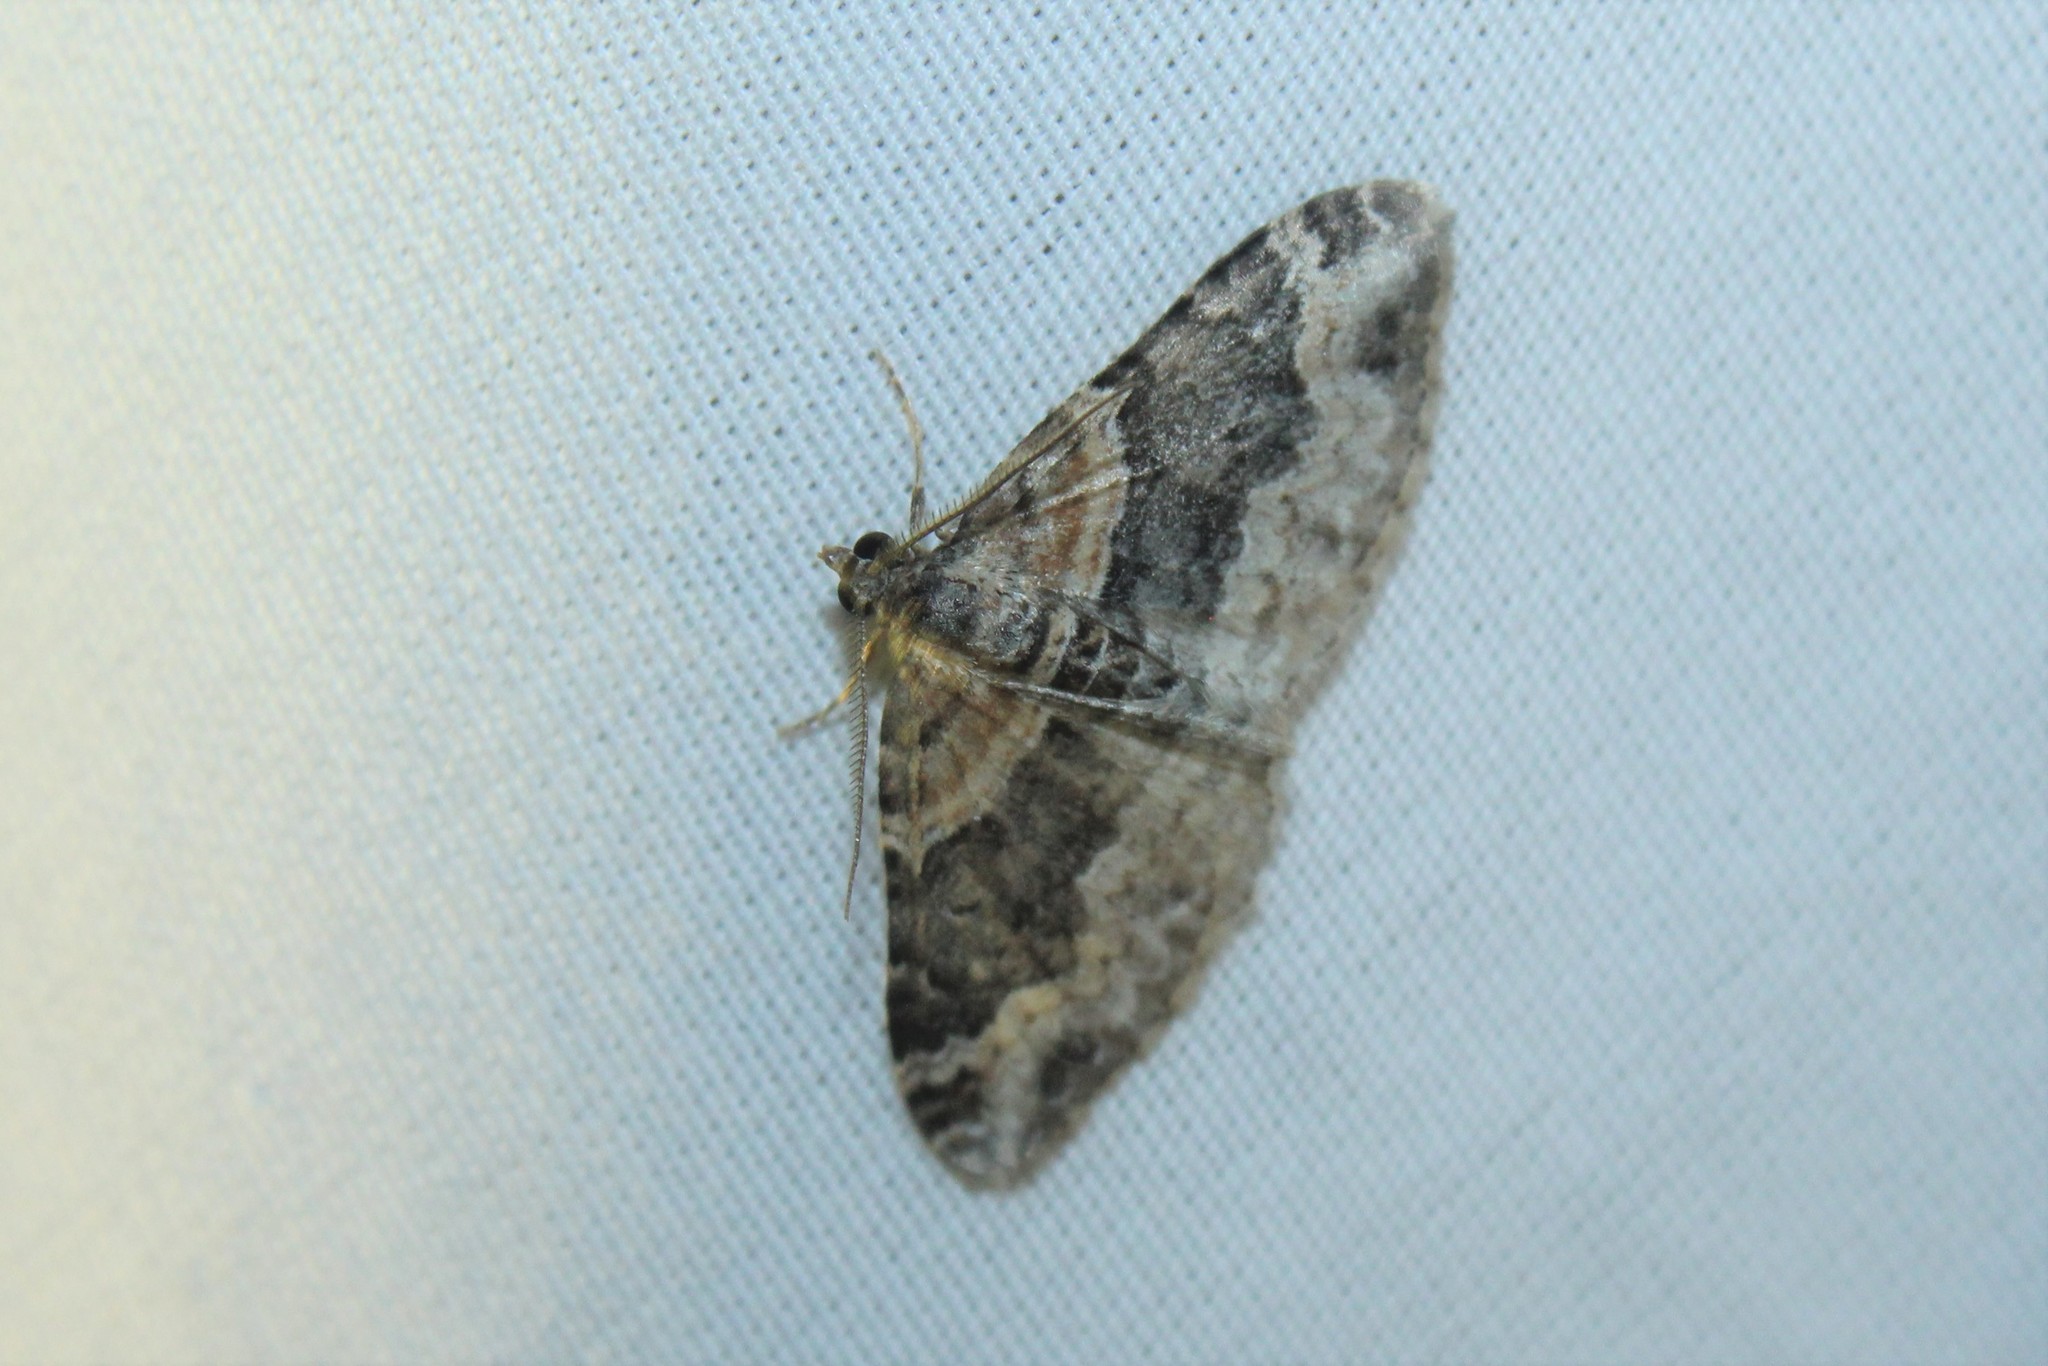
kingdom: Animalia
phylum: Arthropoda
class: Insecta
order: Lepidoptera
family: Geometridae
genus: Xanthorhoe
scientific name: Xanthorhoe ferrugata
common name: Dark-barred twin-spot carpet
